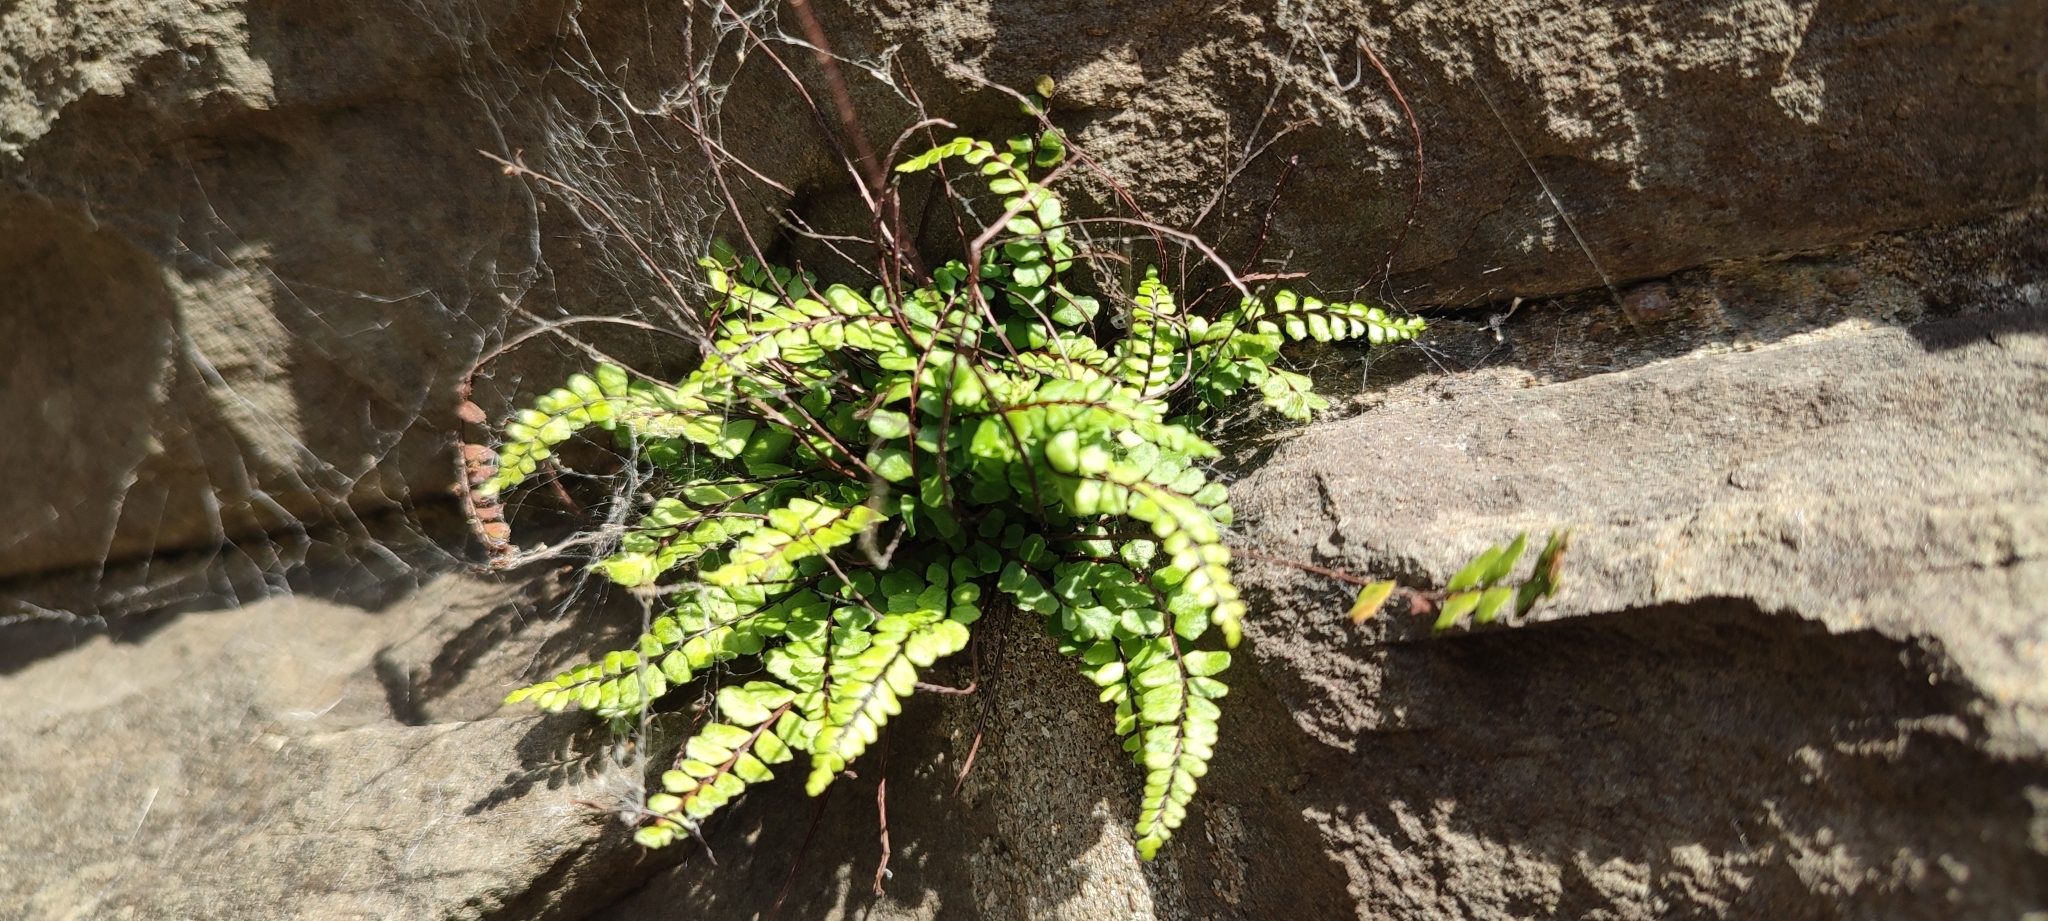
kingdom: Plantae
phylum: Tracheophyta
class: Polypodiopsida
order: Polypodiales
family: Aspleniaceae
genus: Asplenium
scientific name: Asplenium trichomanes
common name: Maidenhair spleenwort
